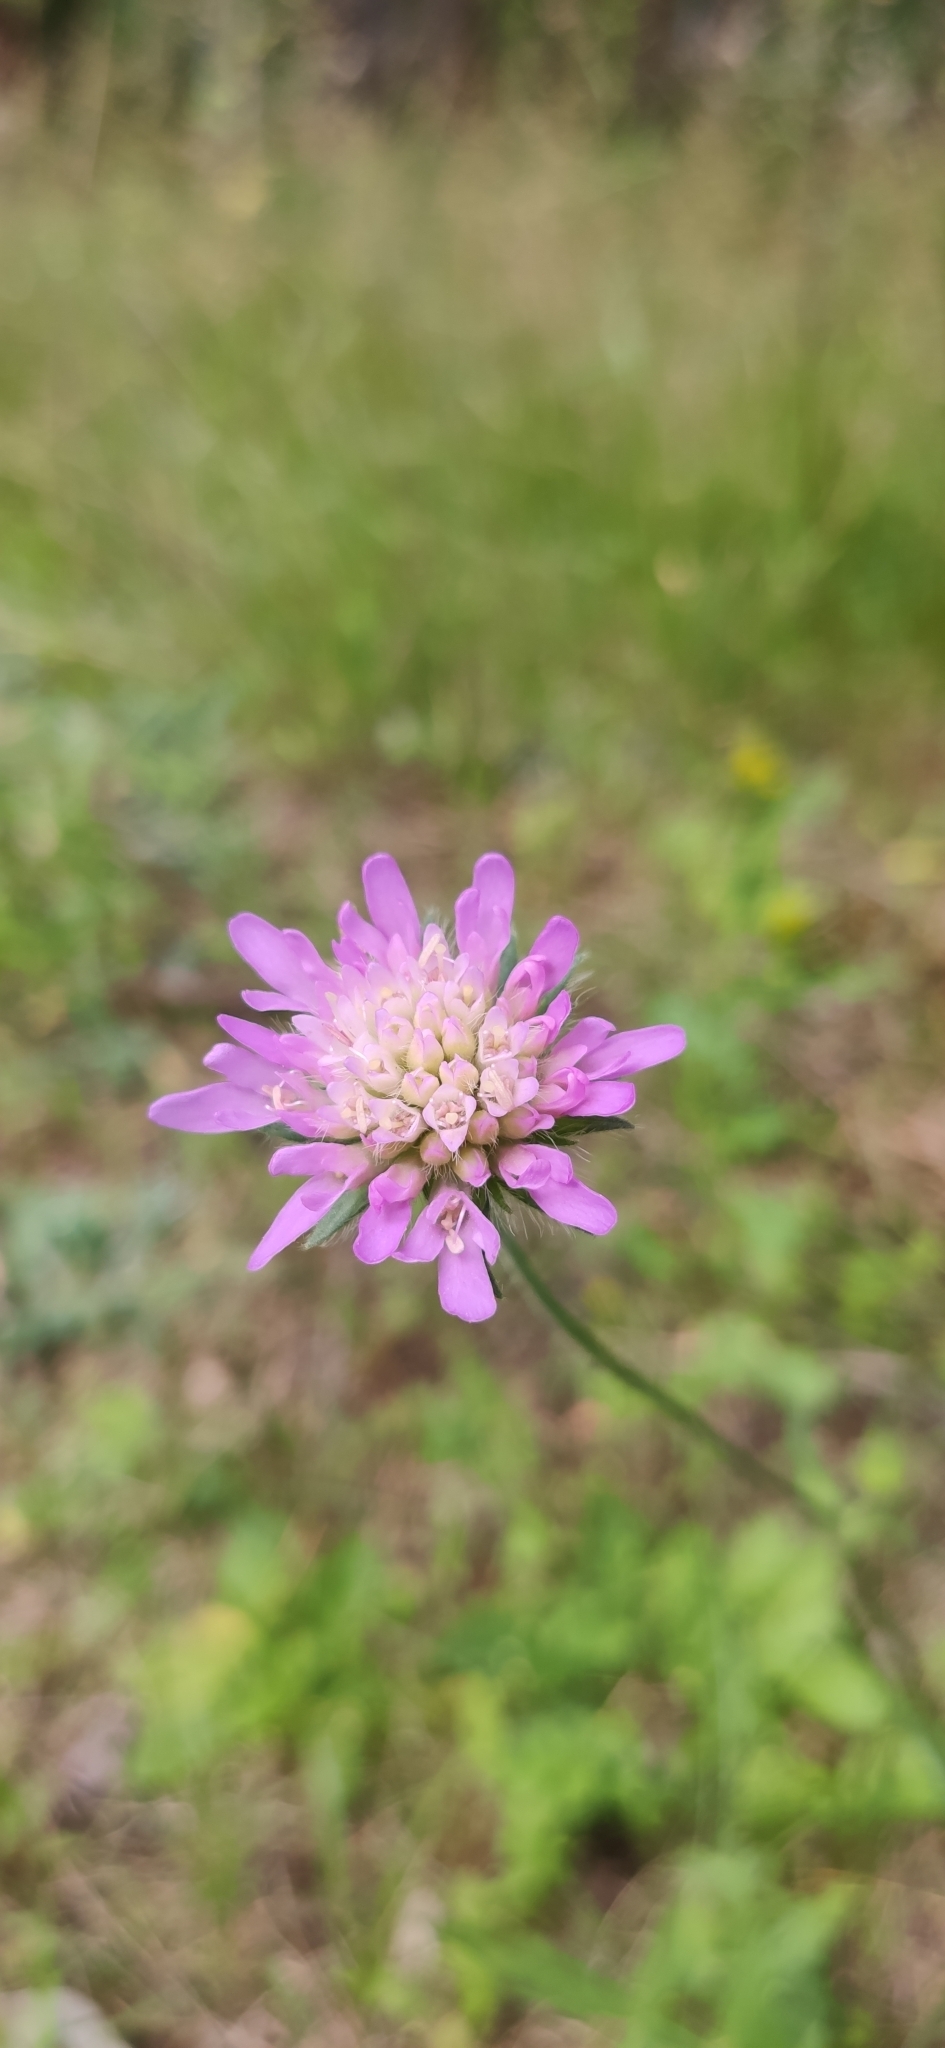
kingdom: Plantae
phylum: Tracheophyta
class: Magnoliopsida
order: Dipsacales
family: Caprifoliaceae
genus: Knautia
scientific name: Knautia arvensis
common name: Field scabiosa
